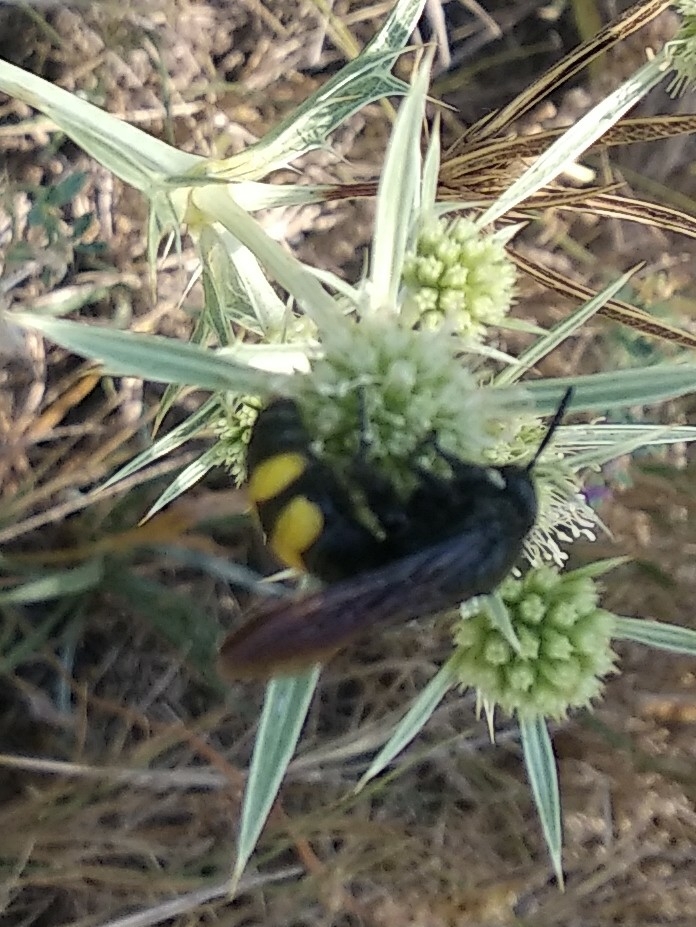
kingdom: Animalia
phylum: Arthropoda
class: Insecta
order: Hymenoptera
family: Scoliidae
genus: Scolia
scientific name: Scolia hirta
